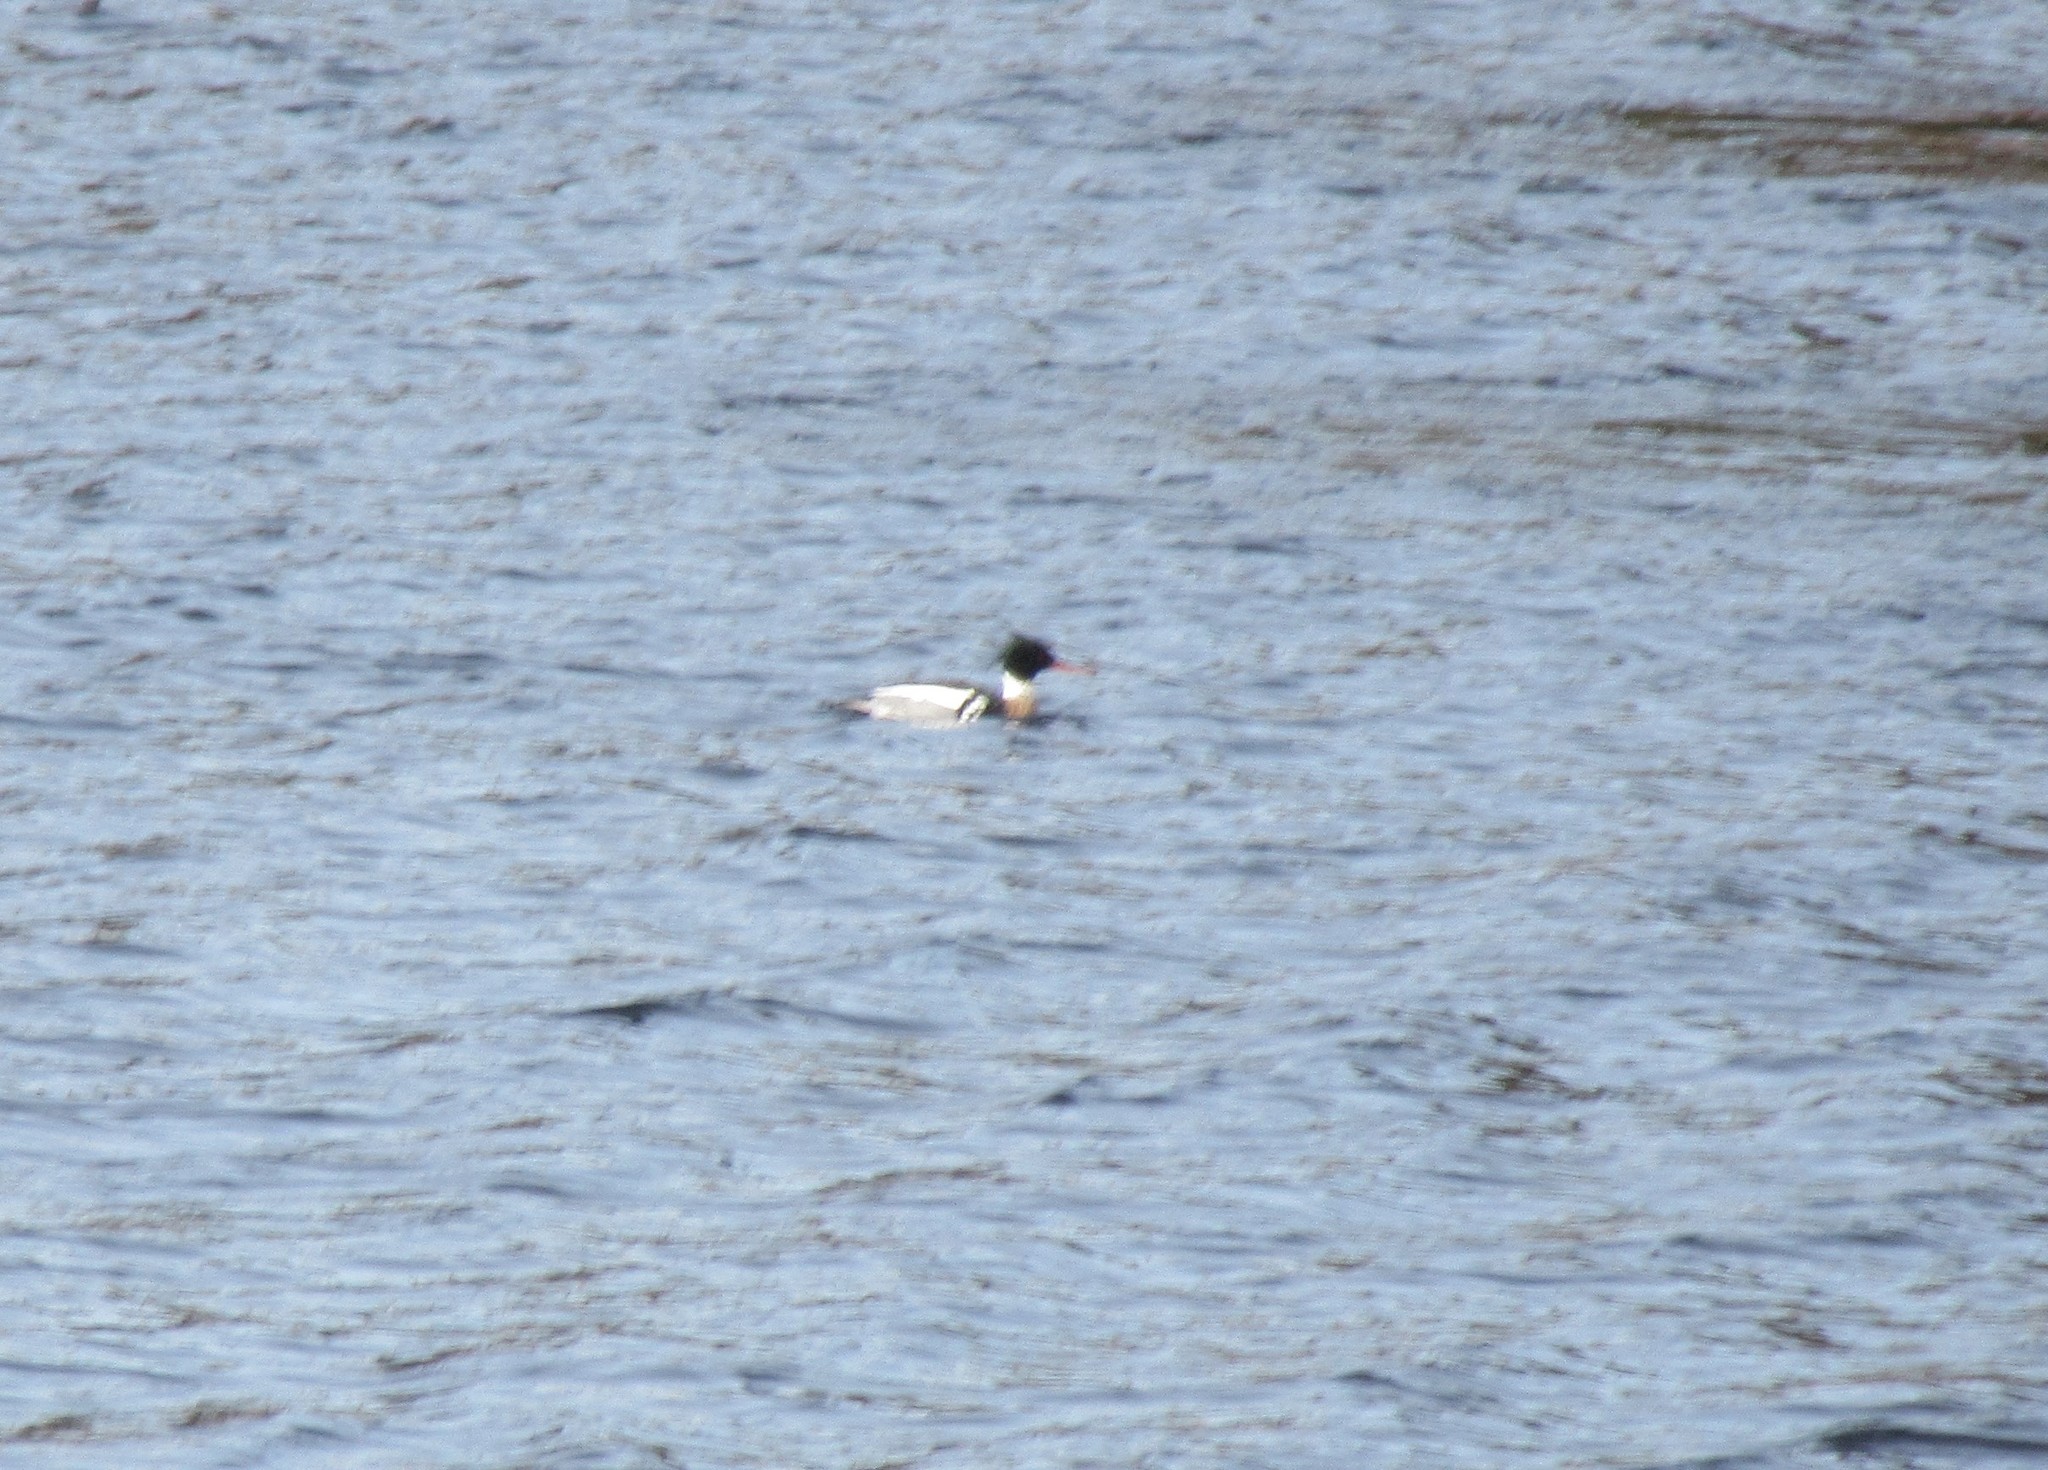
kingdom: Animalia
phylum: Chordata
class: Aves
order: Anseriformes
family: Anatidae
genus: Mergus
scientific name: Mergus serrator
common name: Red-breasted merganser
